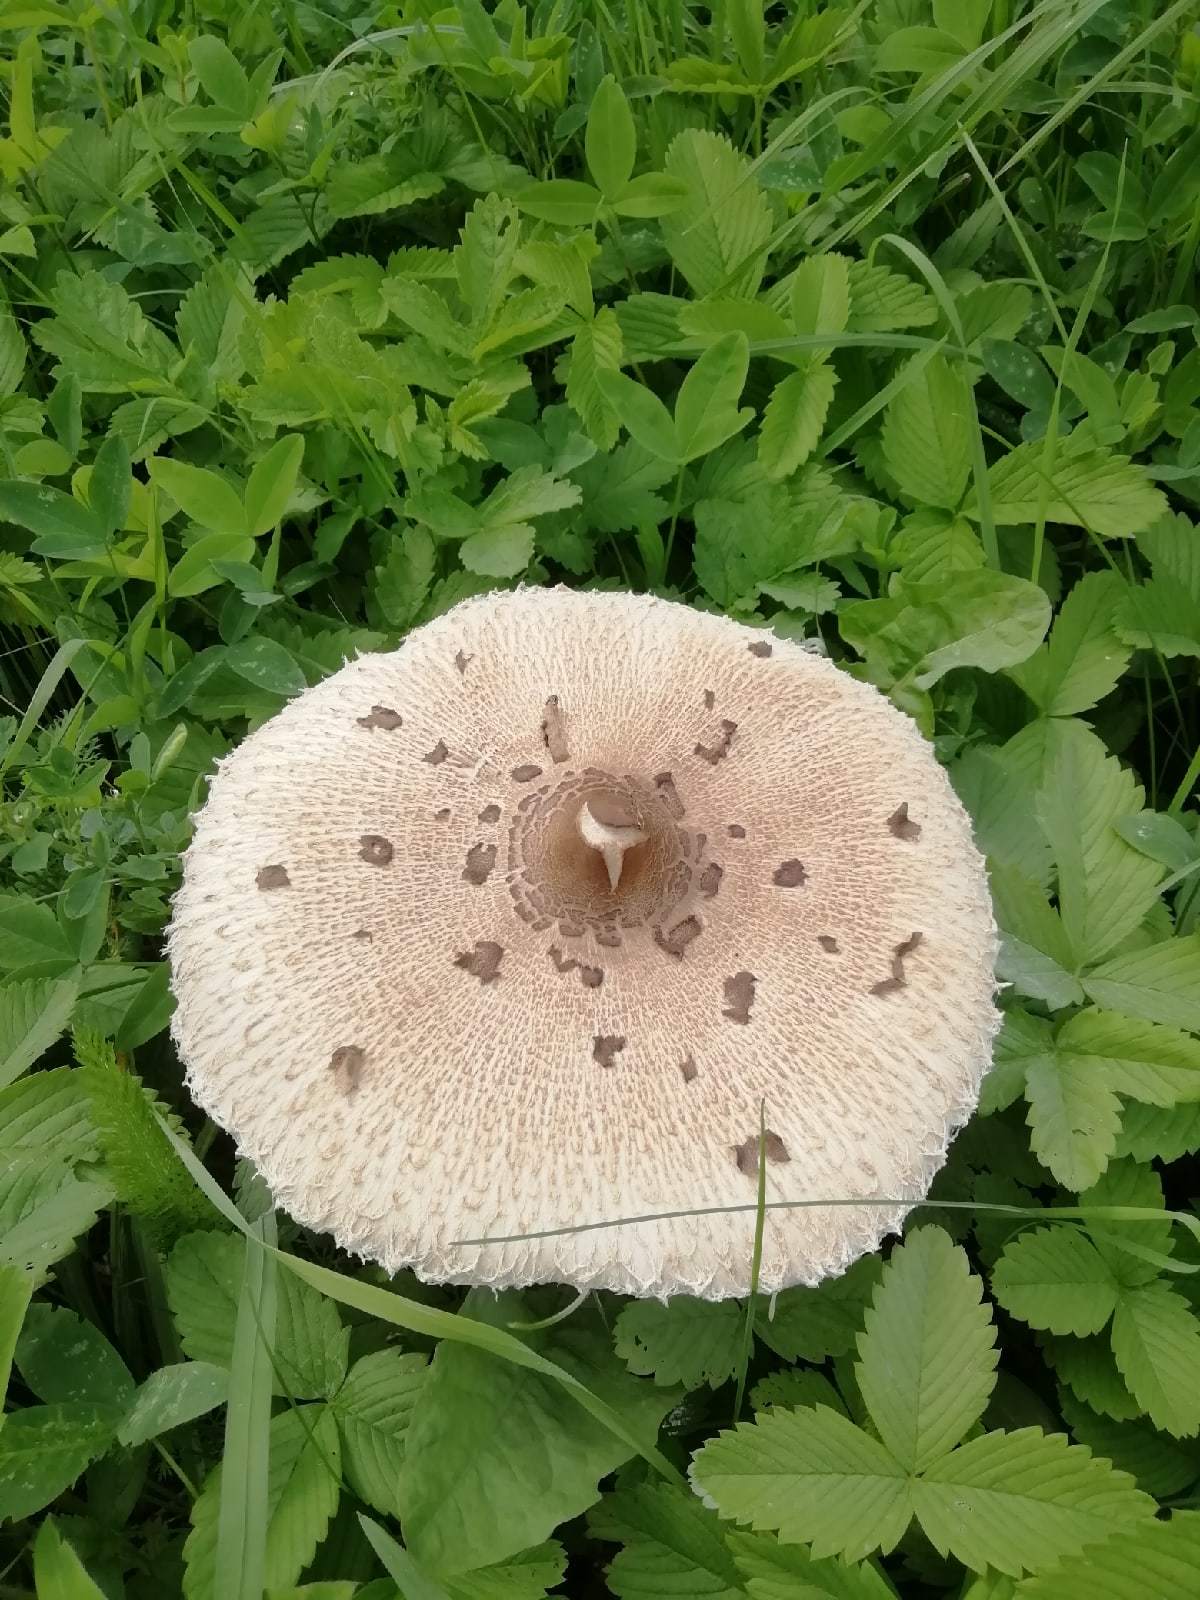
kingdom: Fungi
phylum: Basidiomycota
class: Agaricomycetes
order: Agaricales
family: Agaricaceae
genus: Macrolepiota
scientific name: Macrolepiota procera
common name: Parasol
